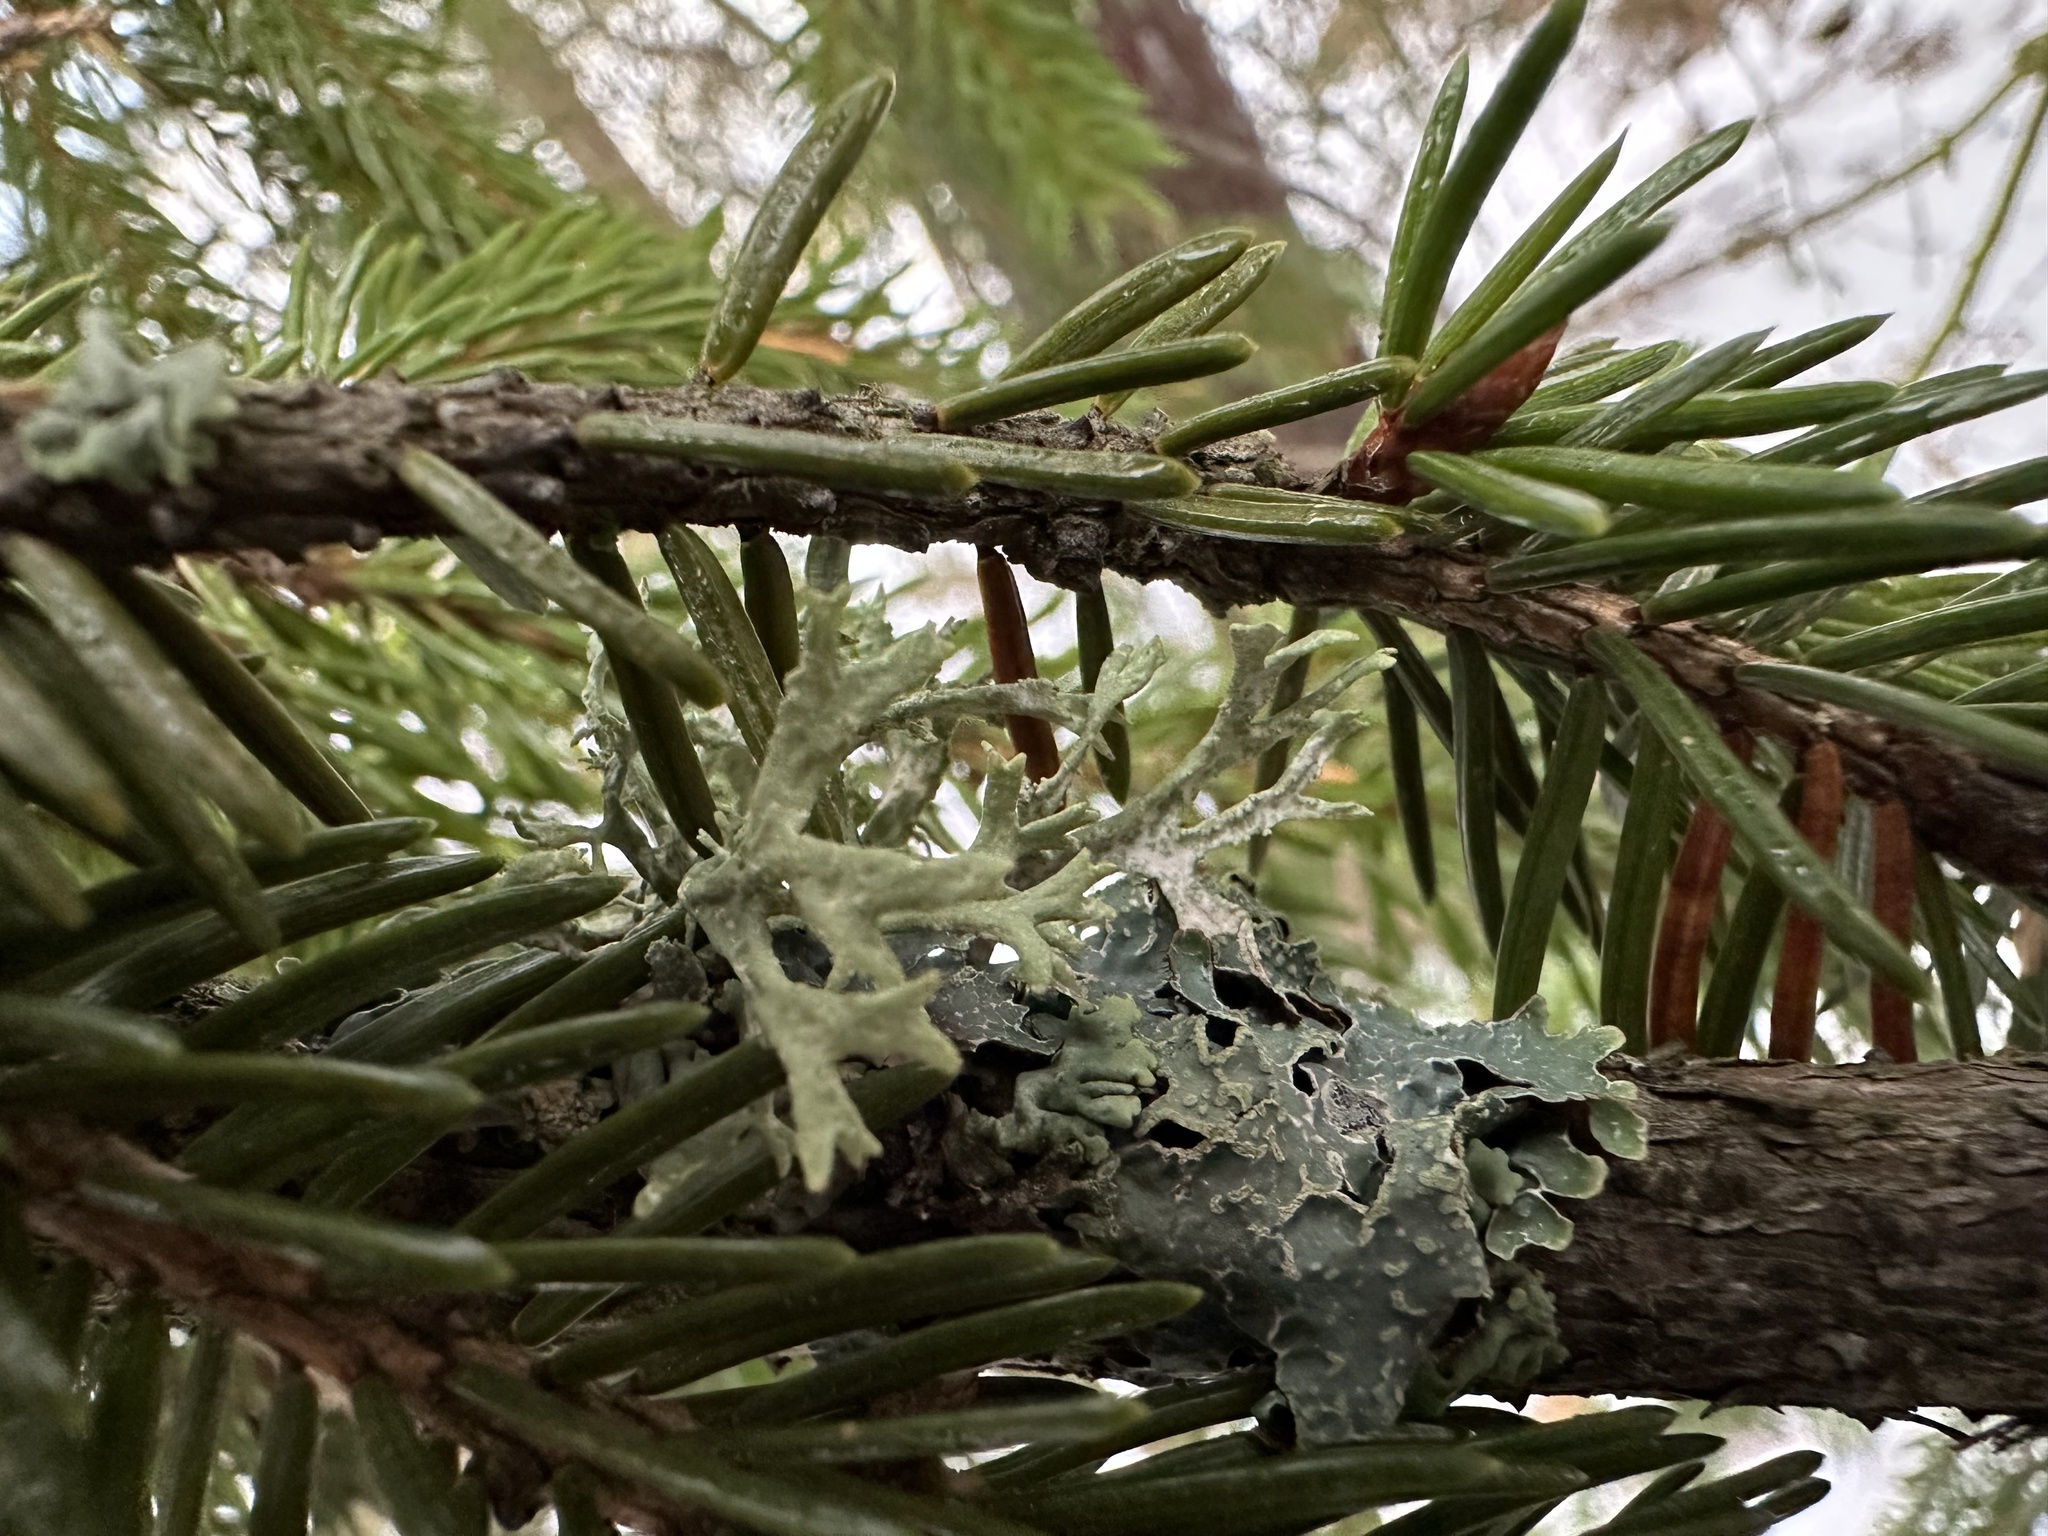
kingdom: Fungi
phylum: Ascomycota
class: Lecanoromycetes
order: Lecanorales
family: Parmeliaceae
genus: Evernia
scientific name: Evernia prunastri
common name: Oak moss
